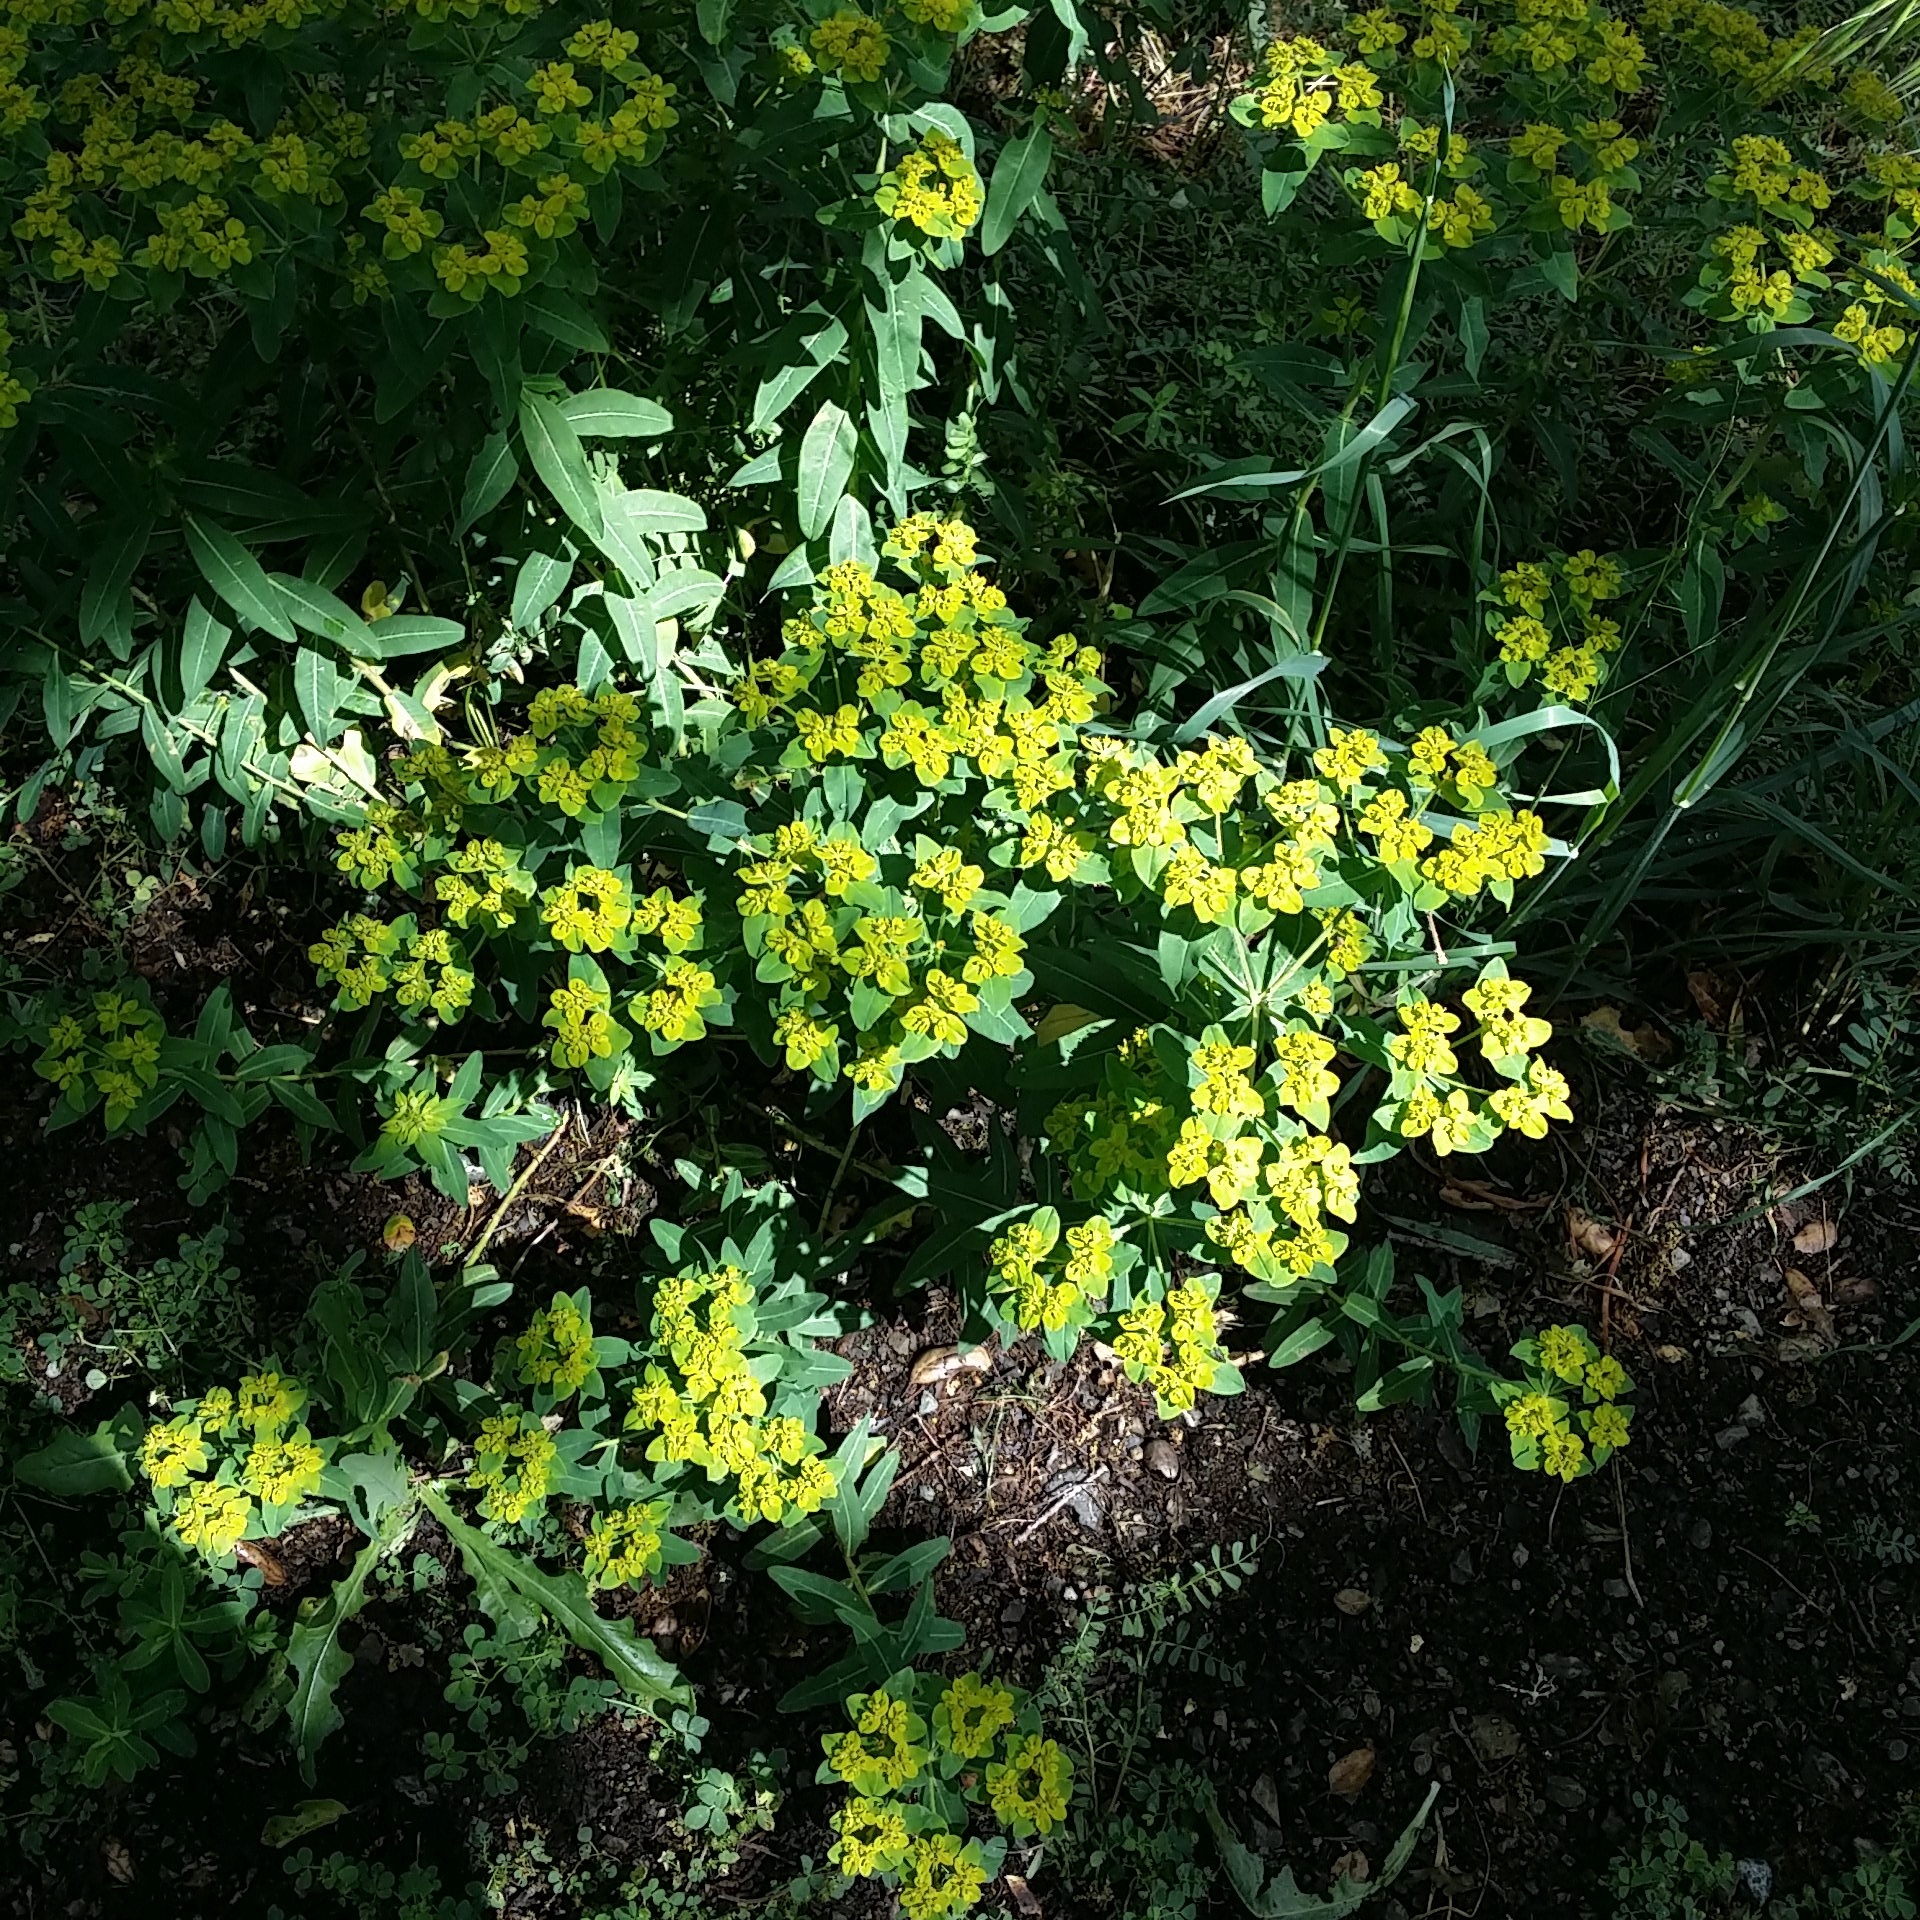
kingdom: Plantae
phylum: Tracheophyta
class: Magnoliopsida
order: Malpighiales
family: Euphorbiaceae
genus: Euphorbia
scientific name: Euphorbia oblongata
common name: Balkan spurge
